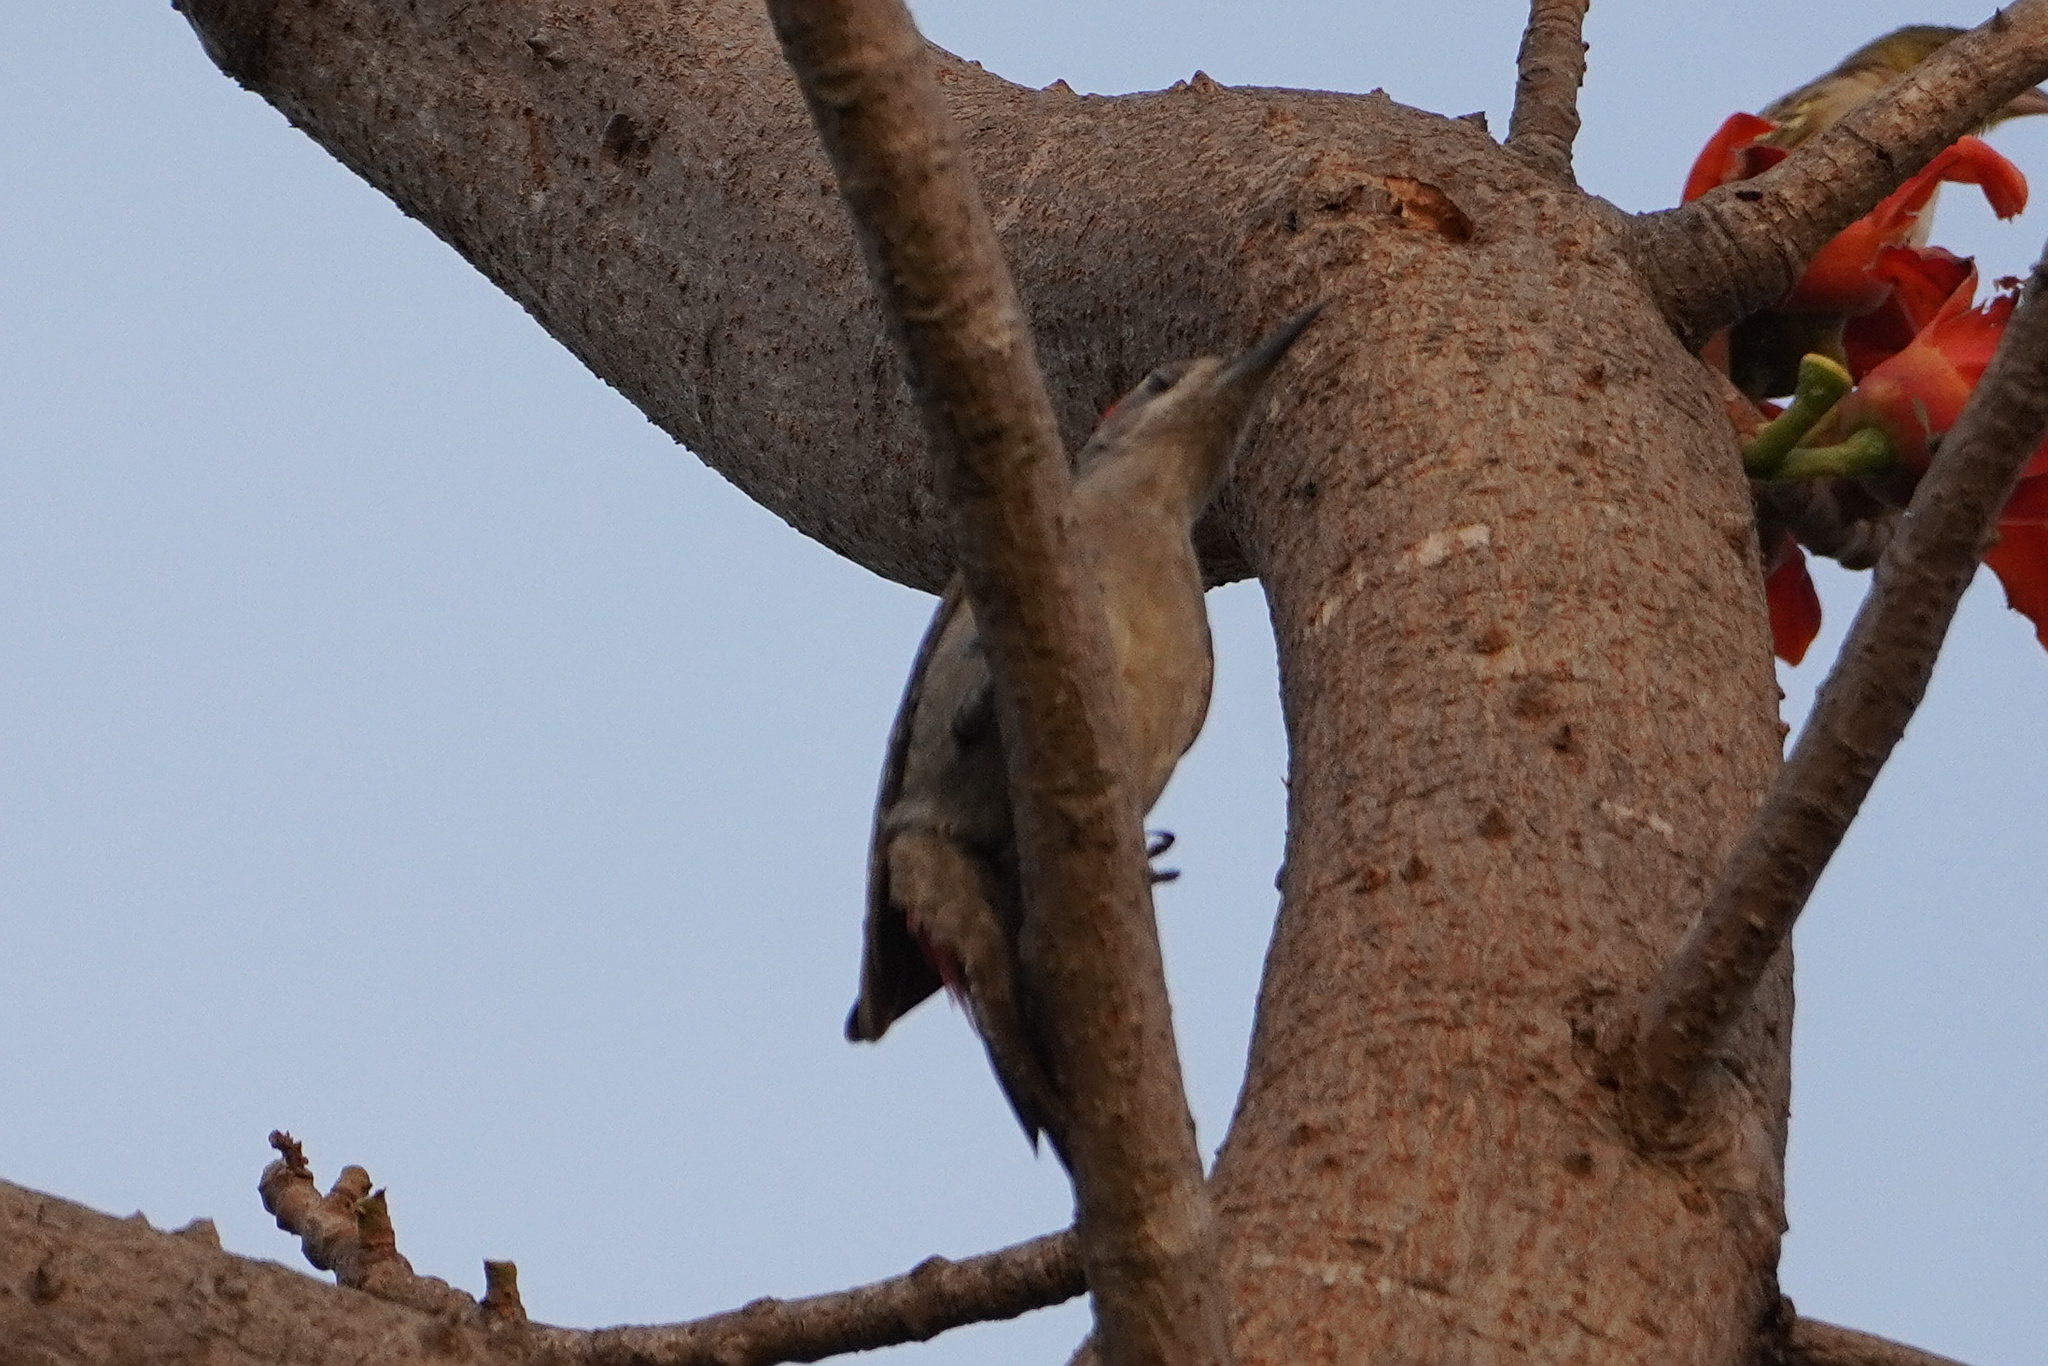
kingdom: Animalia
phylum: Chordata
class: Aves
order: Piciformes
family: Picidae
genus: Dendropicos
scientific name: Dendropicos goertae
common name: African grey woodpecker
